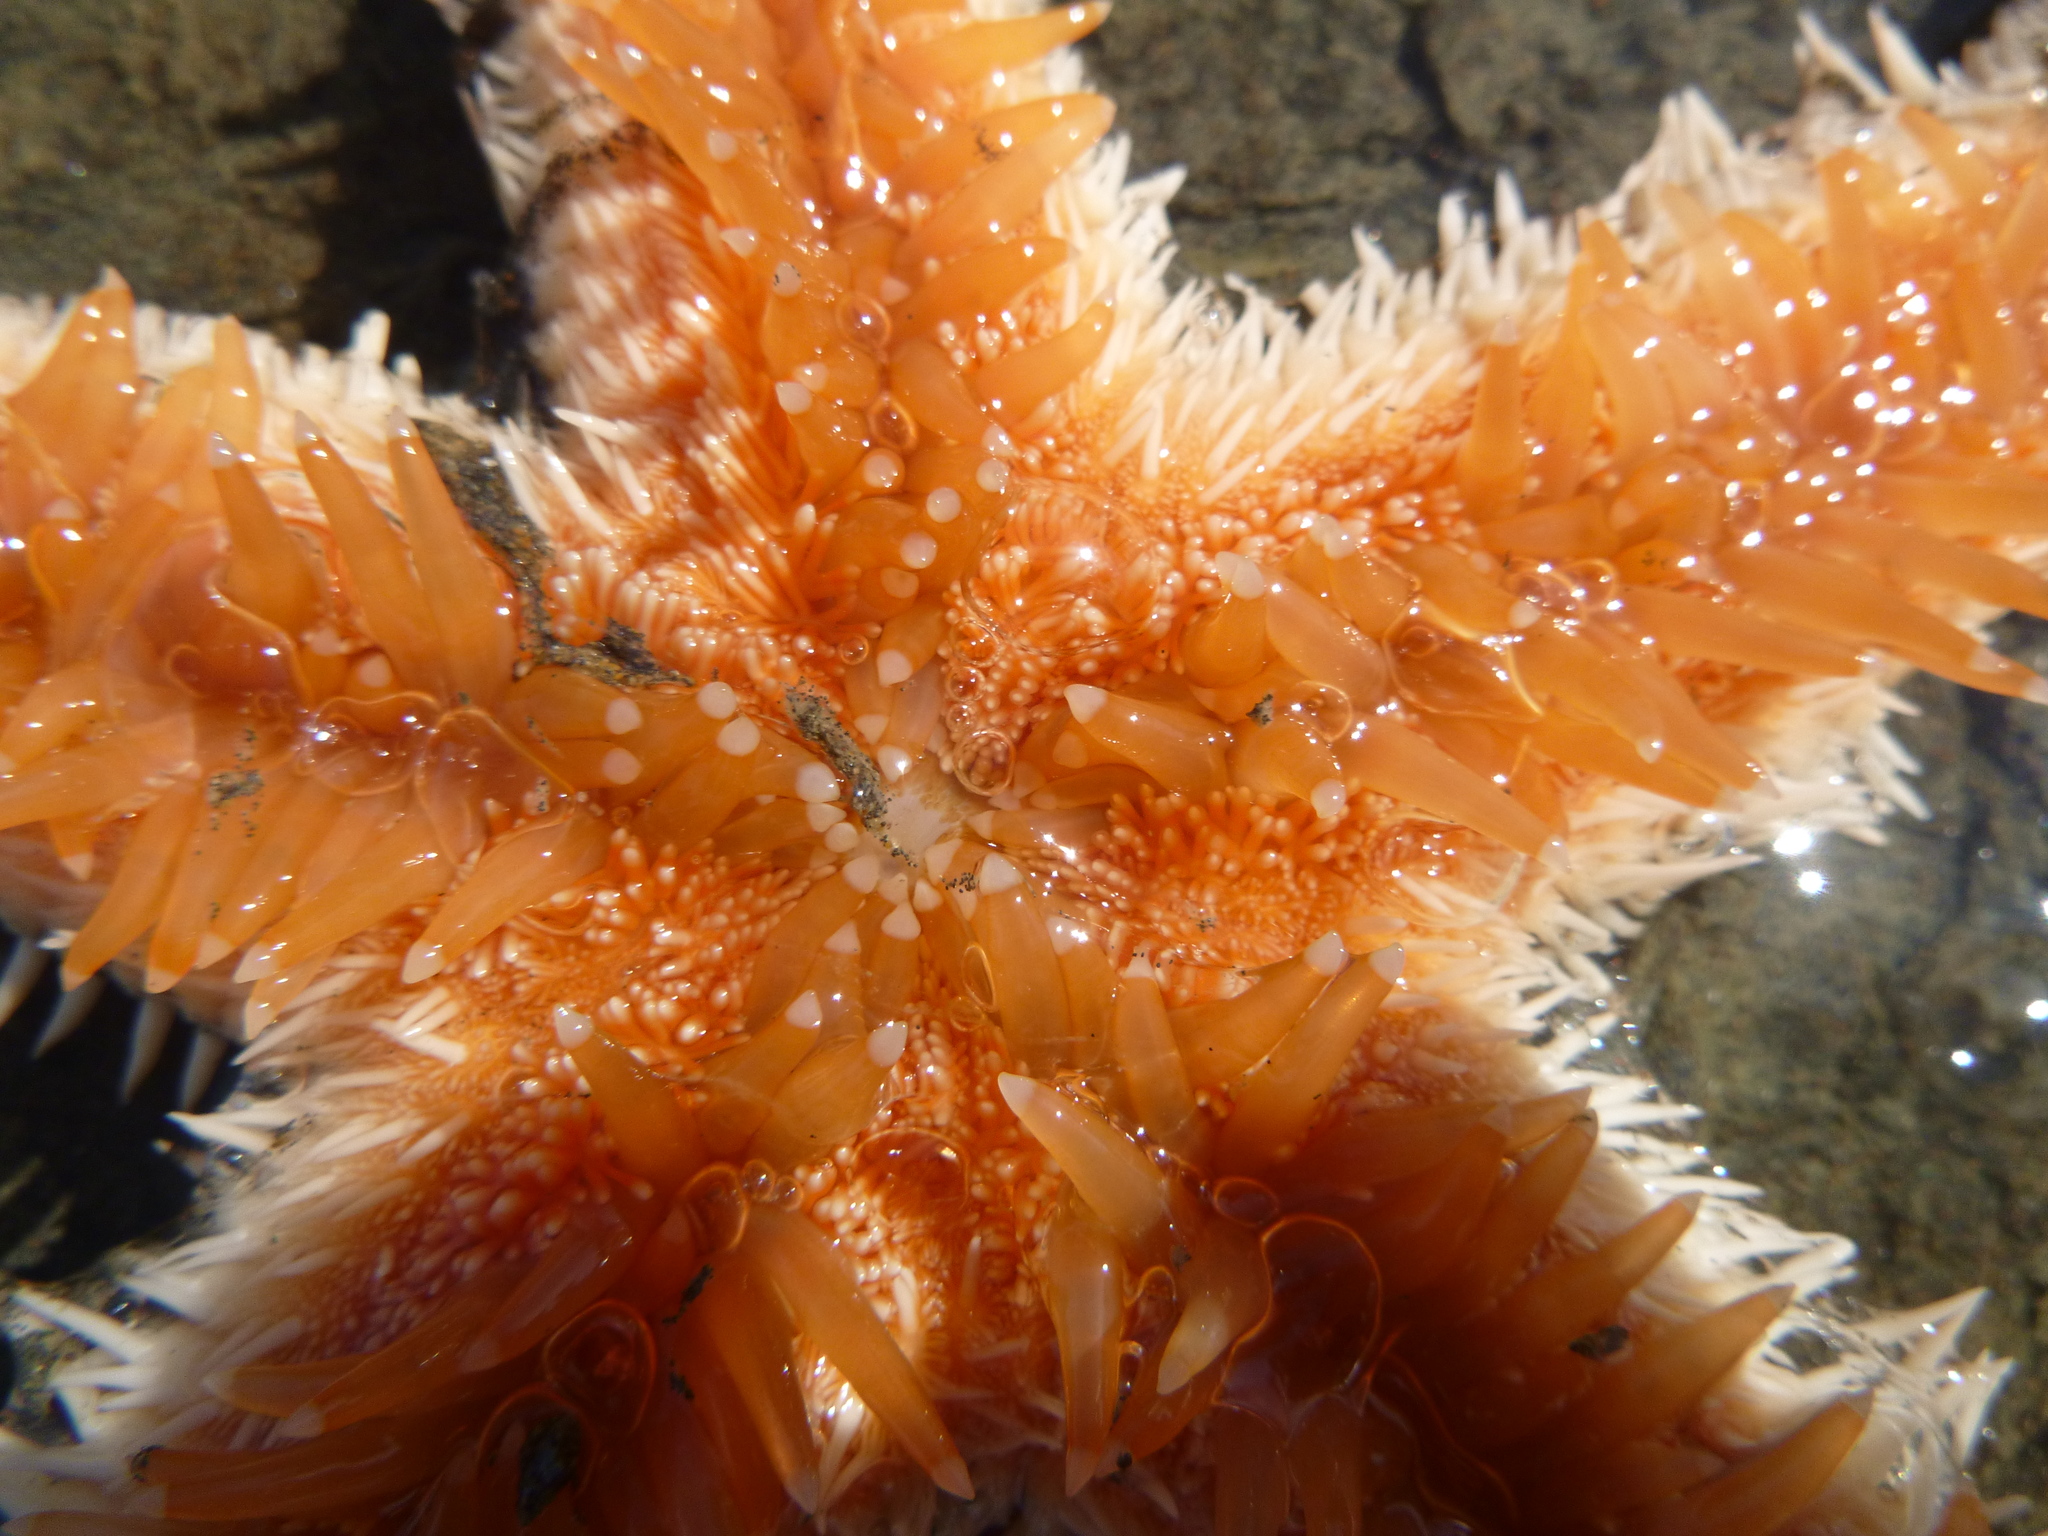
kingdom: Animalia
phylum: Echinodermata
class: Asteroidea
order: Paxillosida
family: Astropectinidae
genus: Astropecten
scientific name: Astropecten polyacanthus
